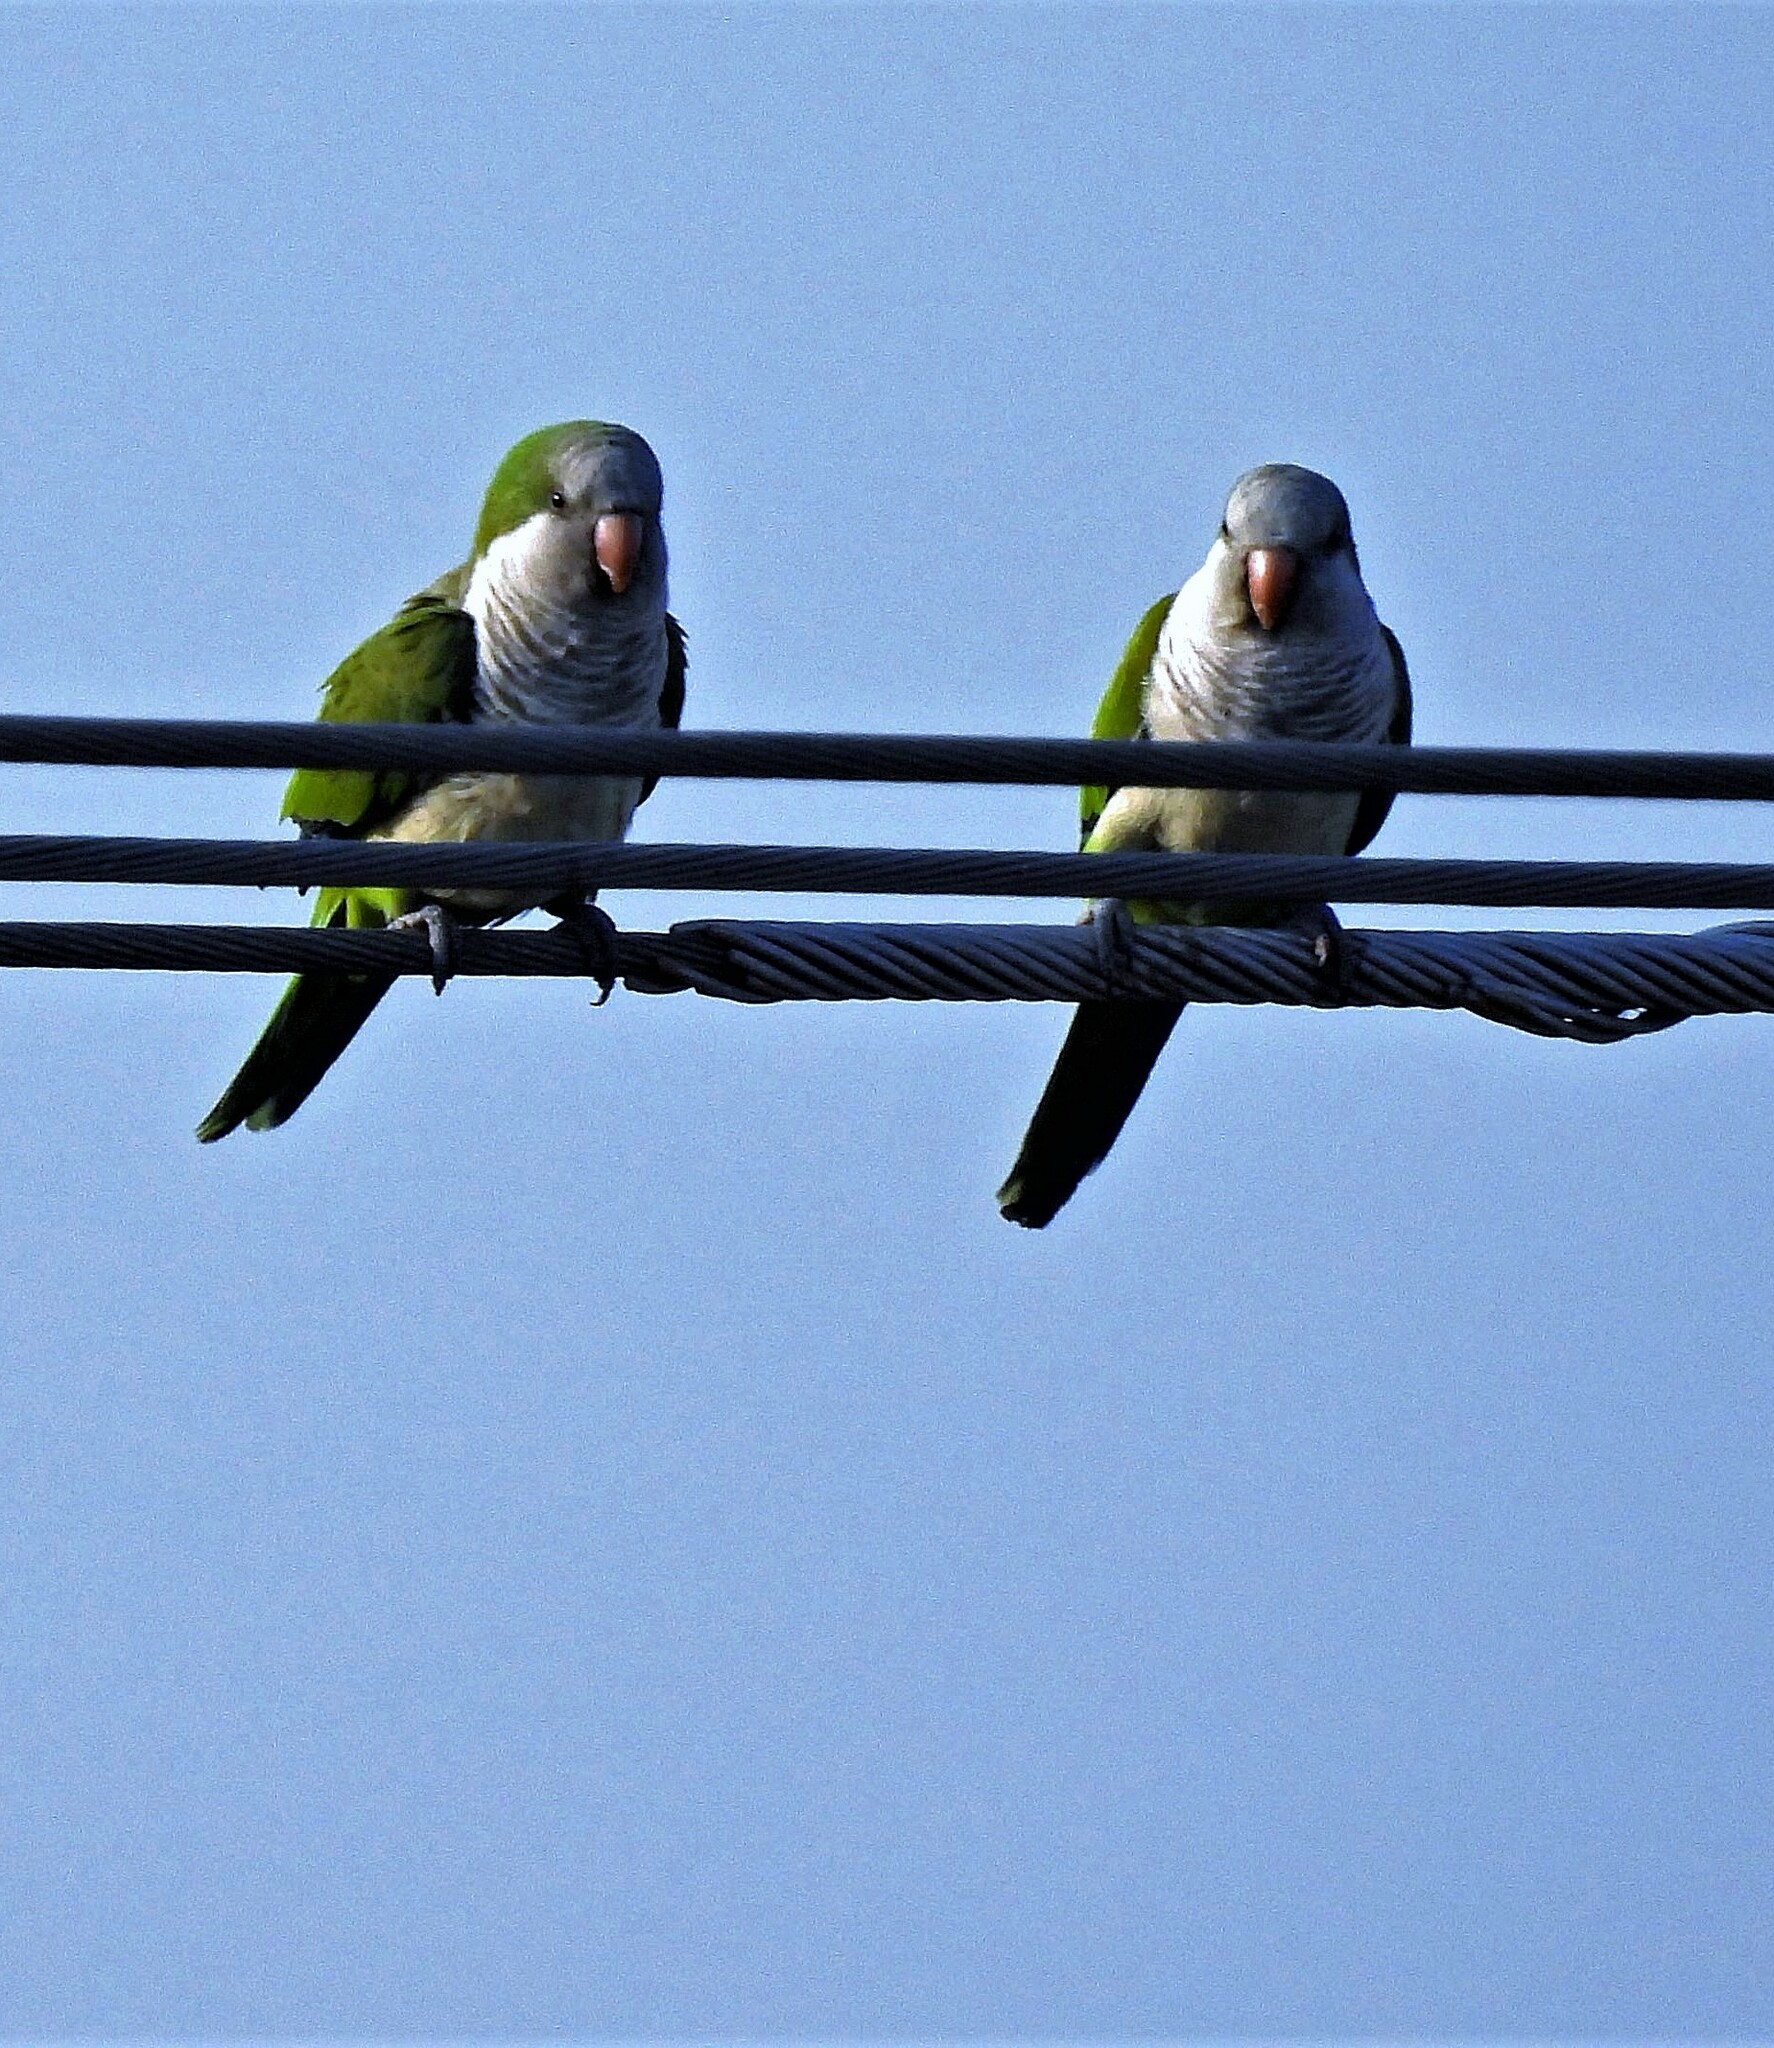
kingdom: Animalia
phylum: Chordata
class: Aves
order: Psittaciformes
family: Psittacidae
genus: Myiopsitta
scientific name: Myiopsitta monachus
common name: Monk parakeet
